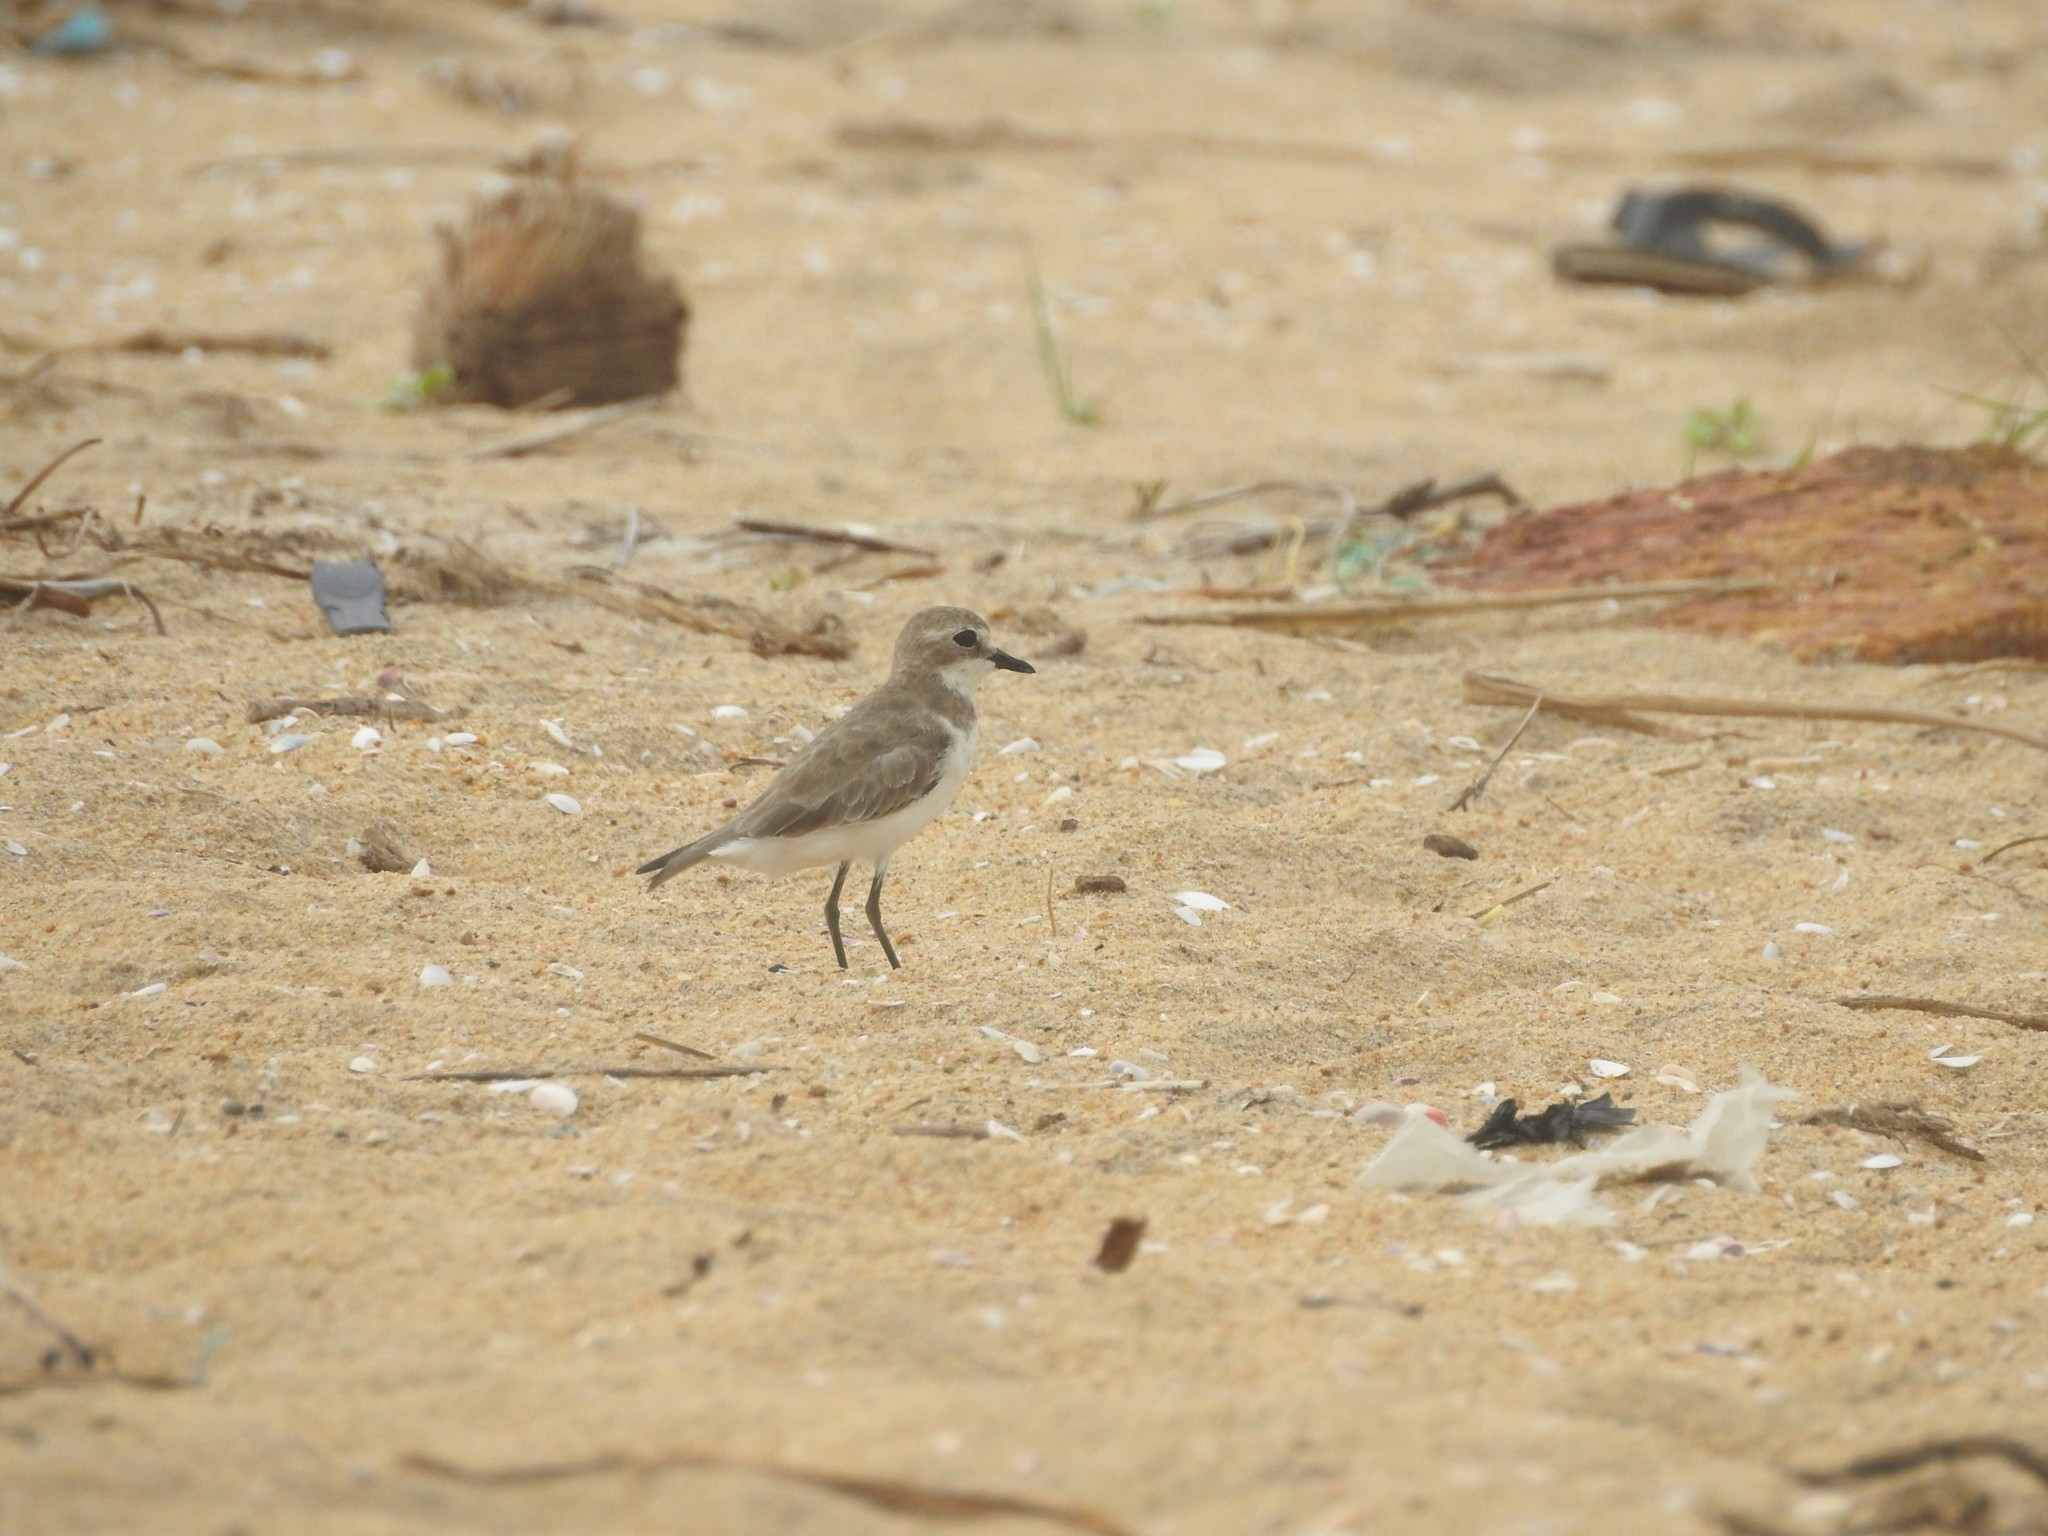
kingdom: Animalia
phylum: Chordata
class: Aves
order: Charadriiformes
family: Charadriidae
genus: Anarhynchus
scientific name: Anarhynchus
